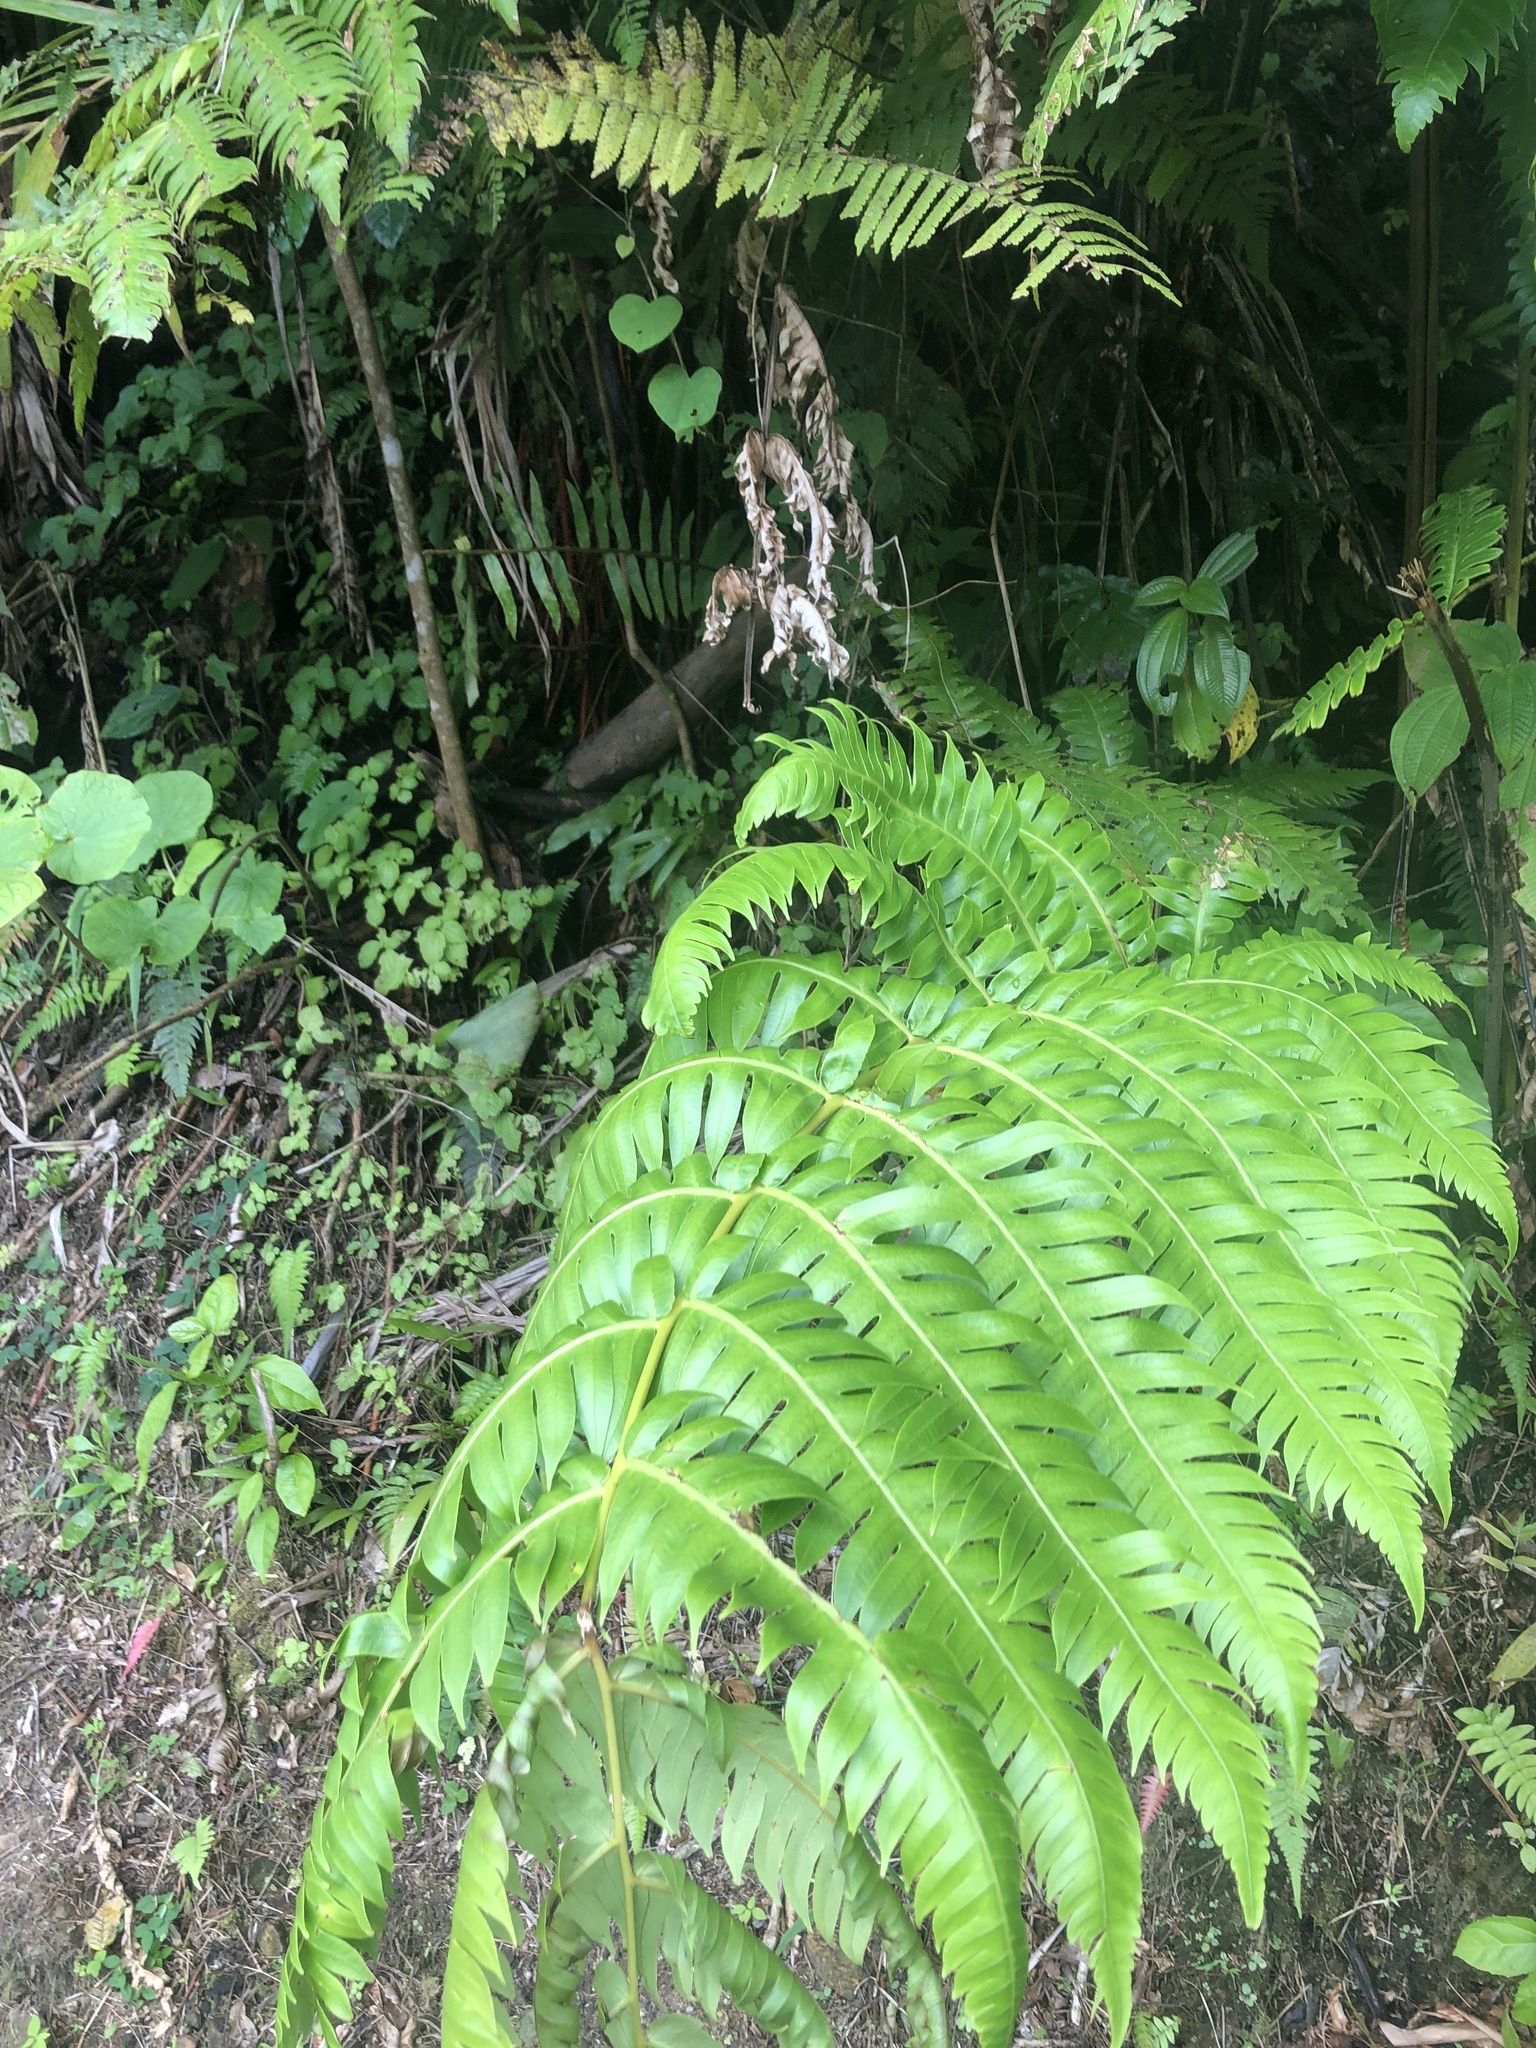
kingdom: Plantae
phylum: Tracheophyta
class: Polypodiopsida
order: Cyatheales
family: Cyatheaceae
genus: Cyathea
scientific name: Cyathea horrida
